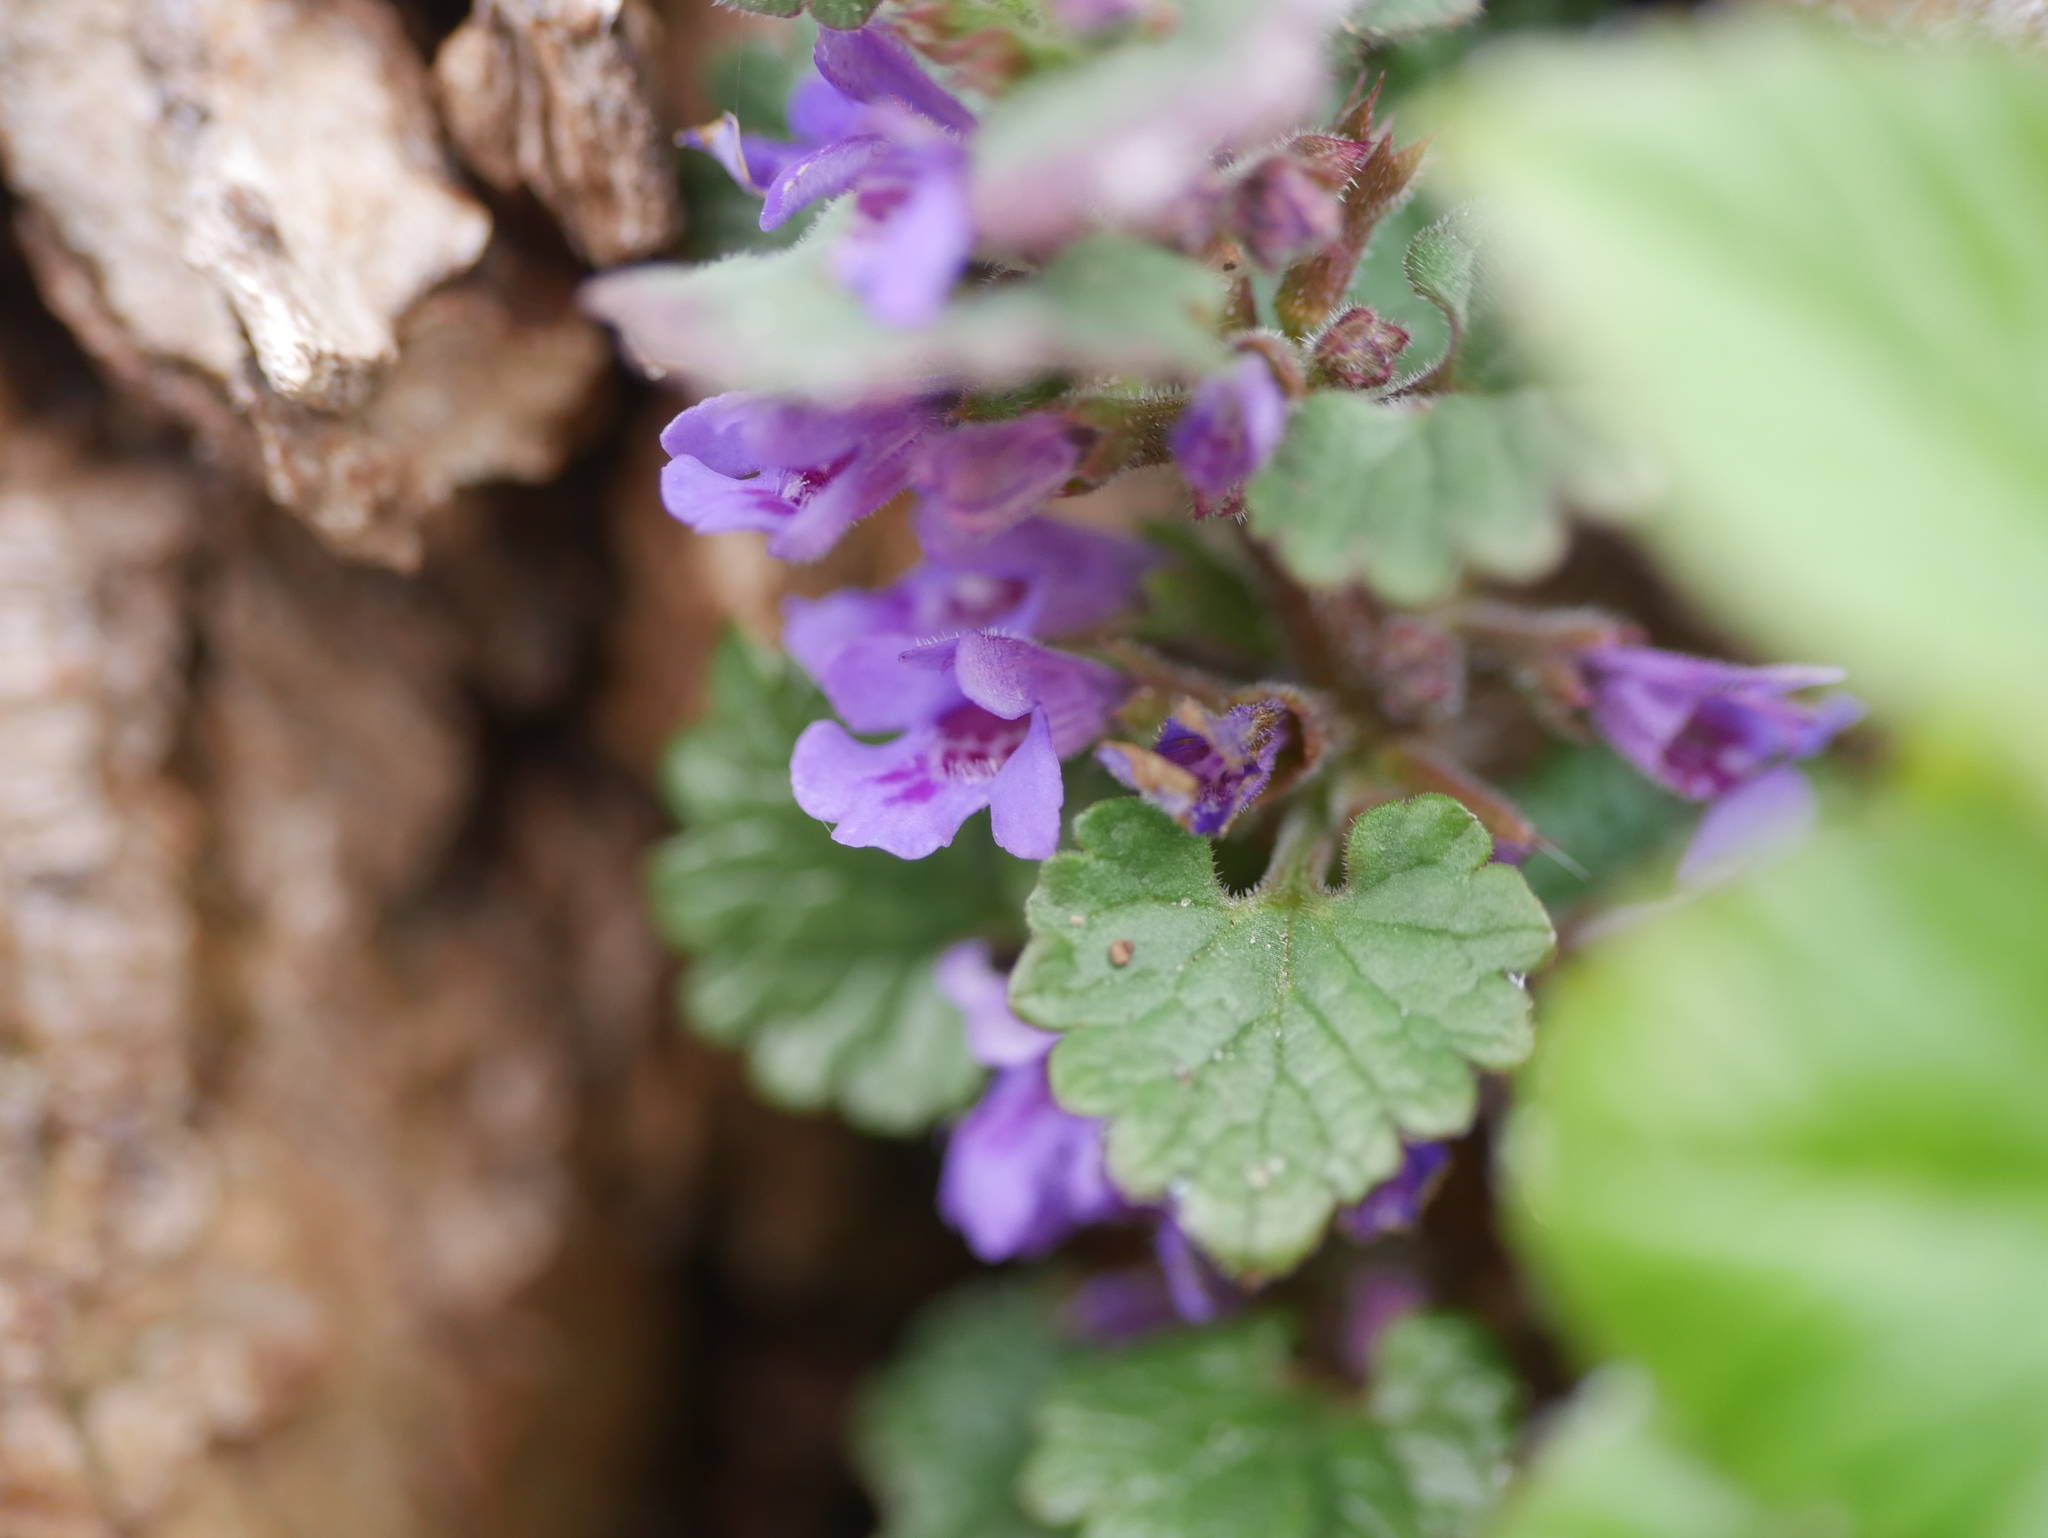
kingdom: Plantae
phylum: Tracheophyta
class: Magnoliopsida
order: Lamiales
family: Lamiaceae
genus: Glechoma
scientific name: Glechoma hederacea
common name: Ground ivy
